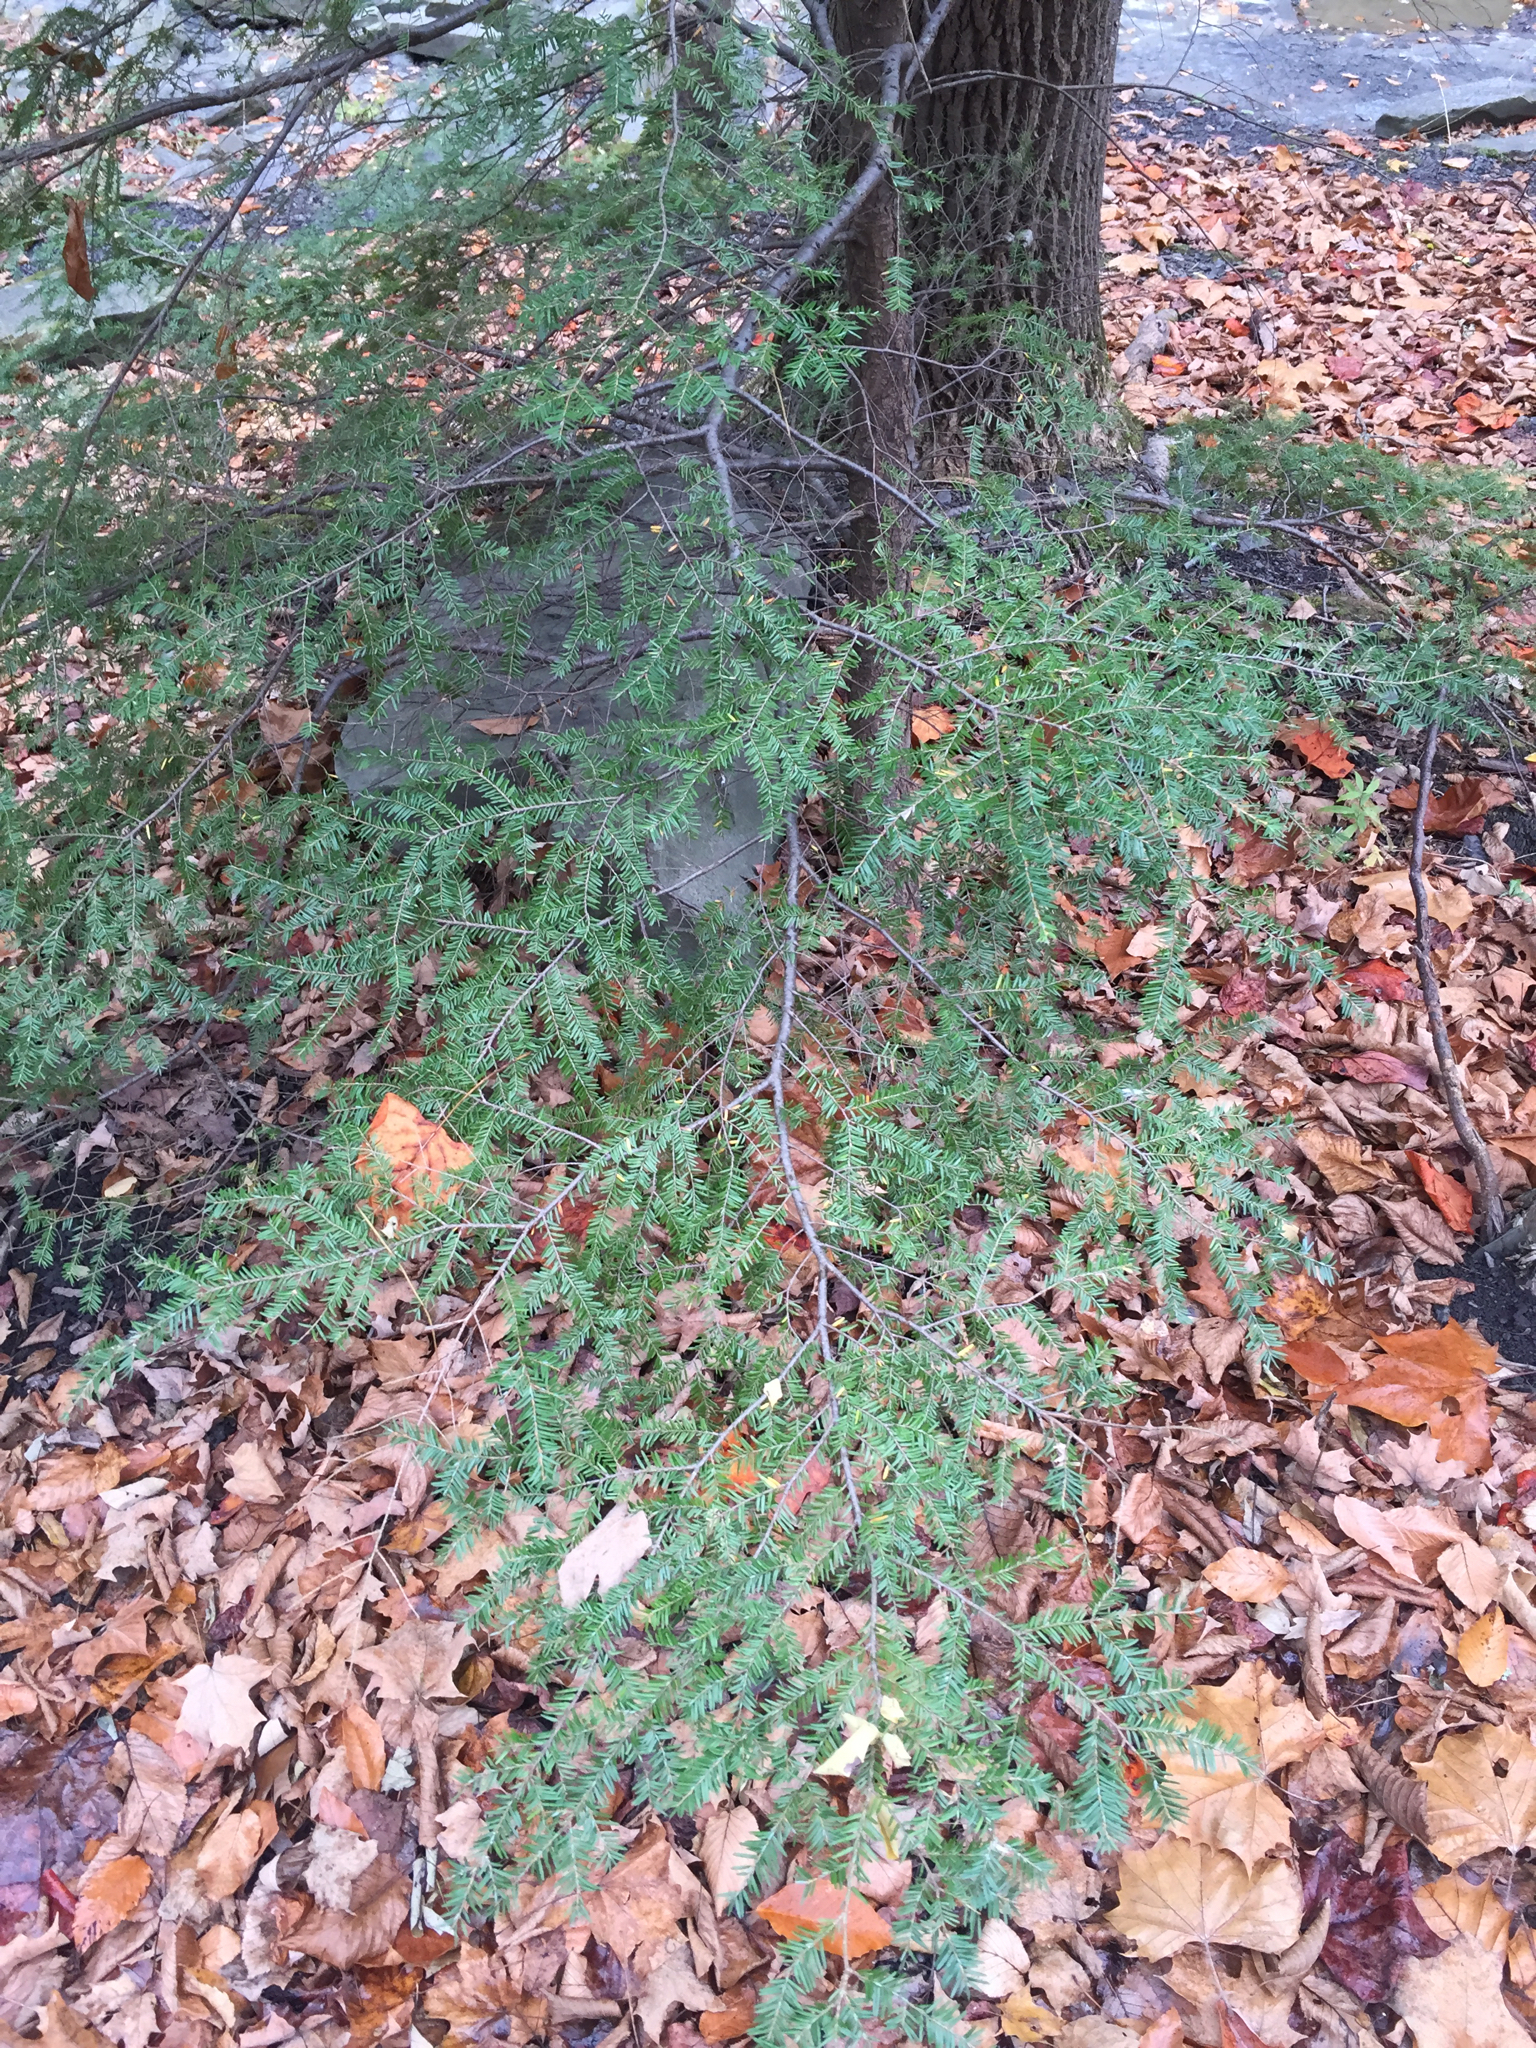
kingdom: Plantae
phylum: Tracheophyta
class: Pinopsida
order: Pinales
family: Pinaceae
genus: Tsuga
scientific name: Tsuga canadensis
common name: Eastern hemlock
